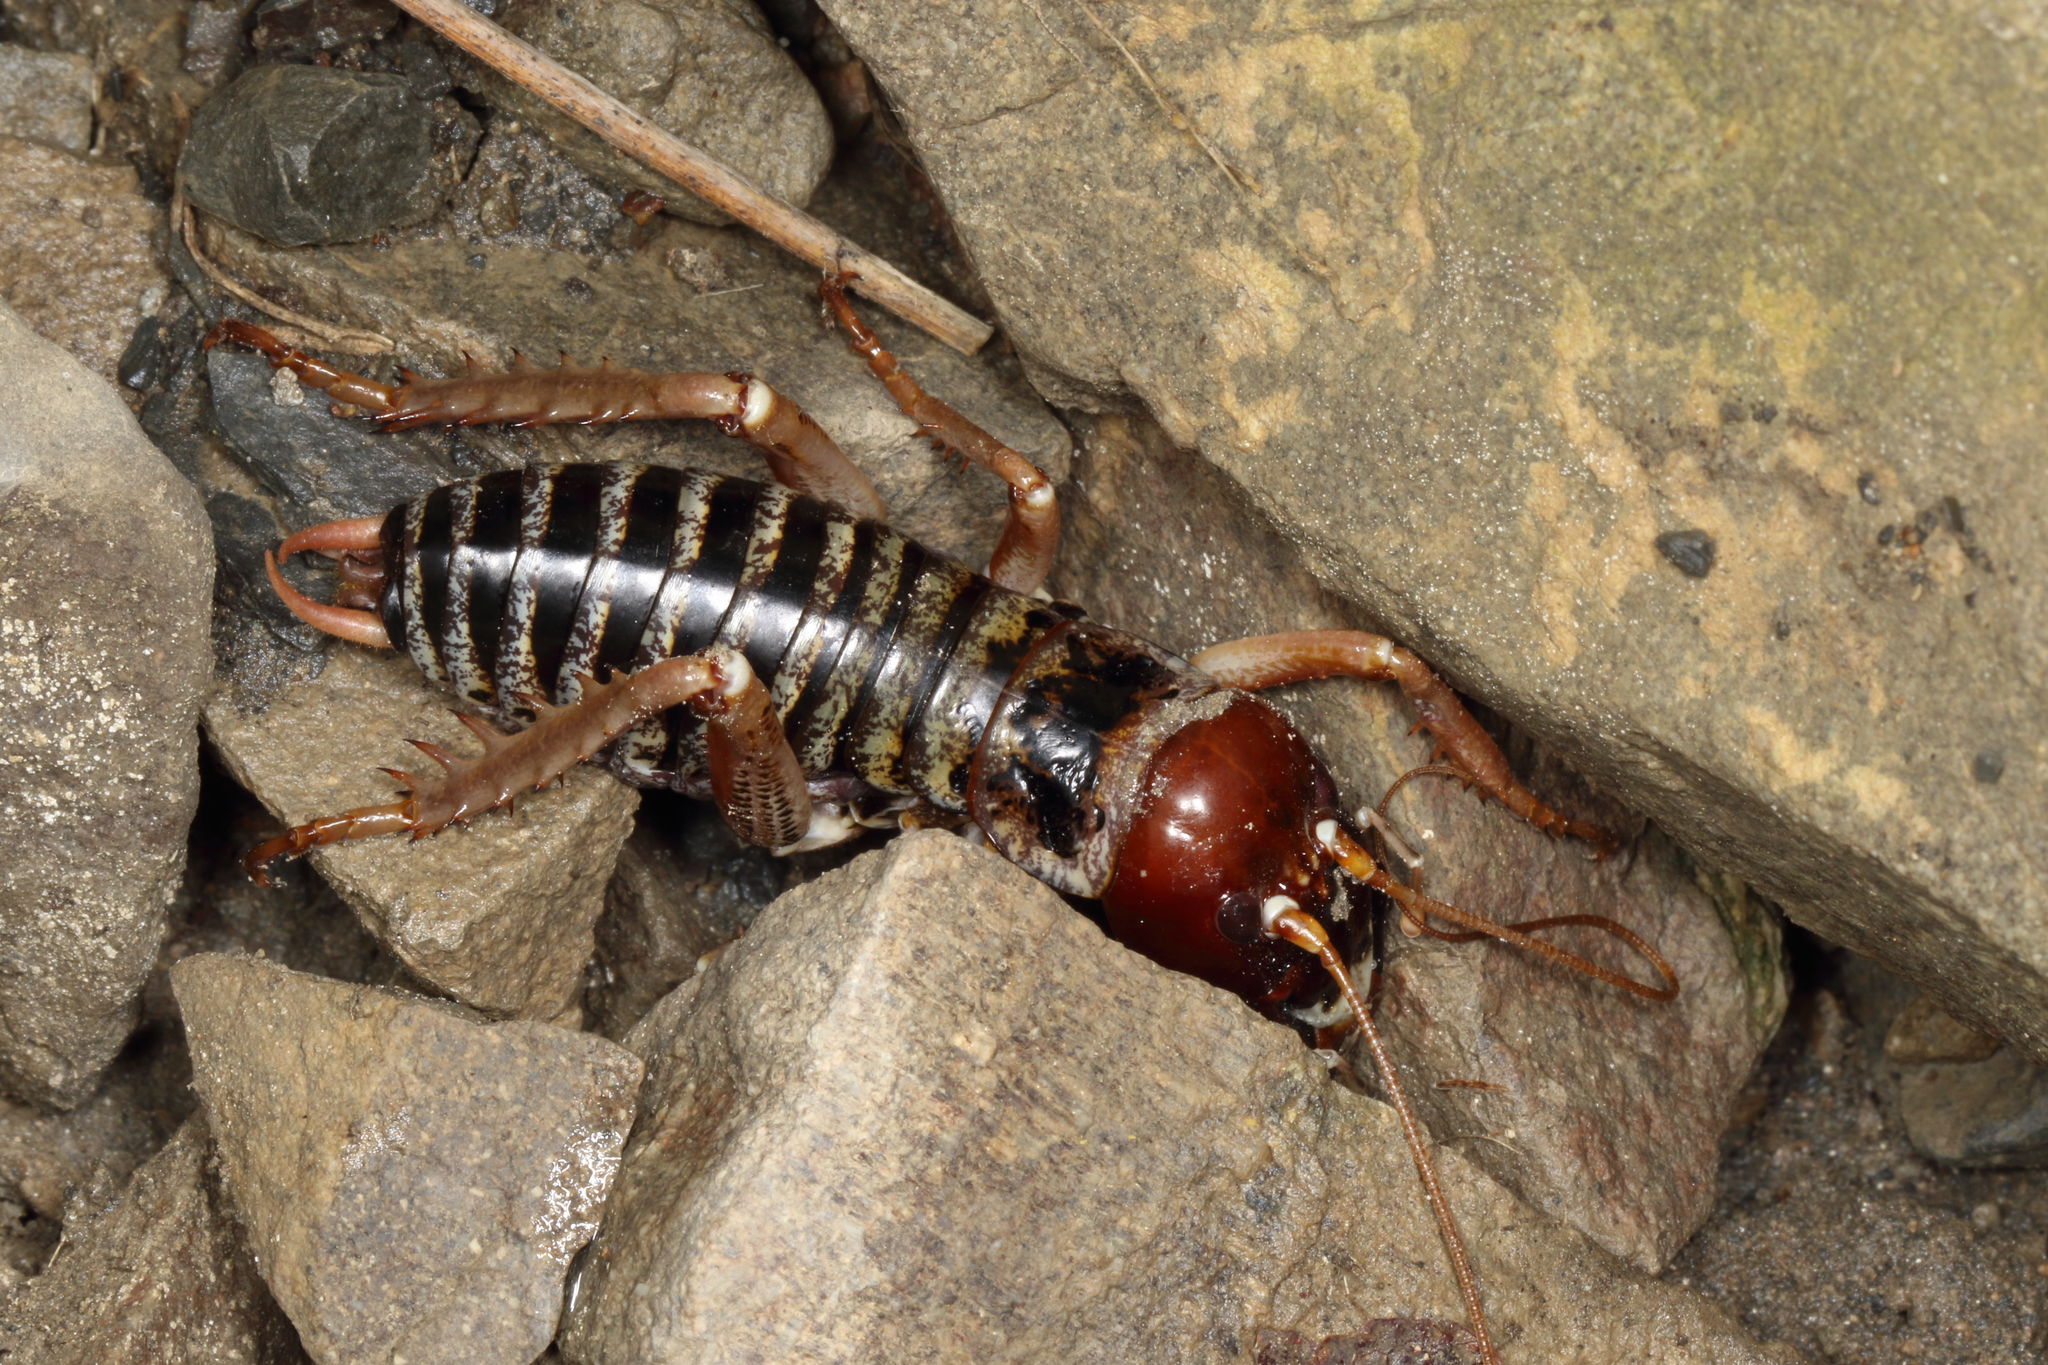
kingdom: Animalia
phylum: Arthropoda
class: Insecta
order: Orthoptera
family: Anostostomatidae
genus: Hemideina
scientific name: Hemideina maori
